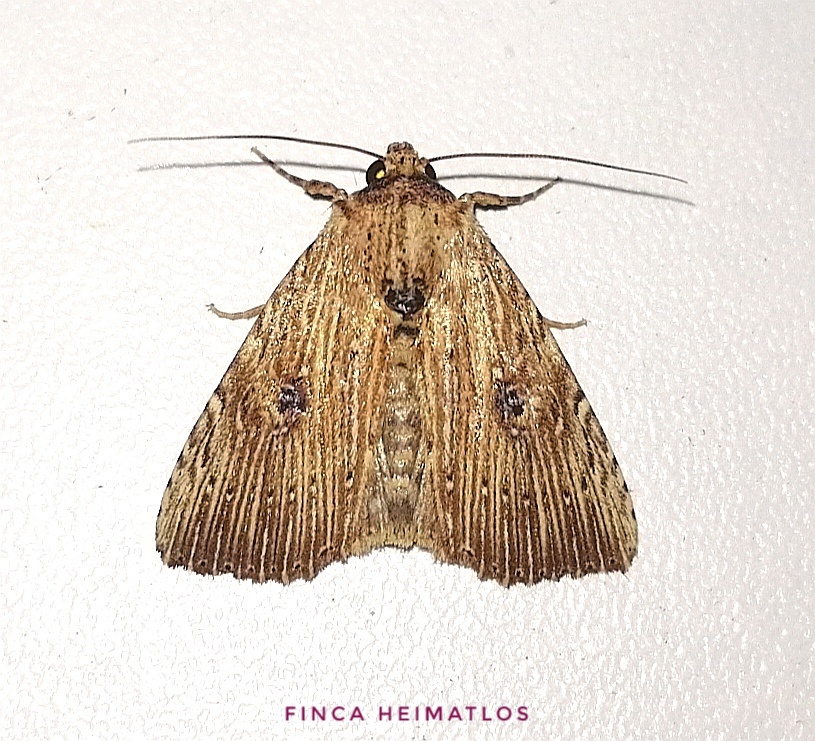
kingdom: Animalia
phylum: Arthropoda
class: Insecta
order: Lepidoptera
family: Noctuidae
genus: Perigea
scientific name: Perigea leucanioides
